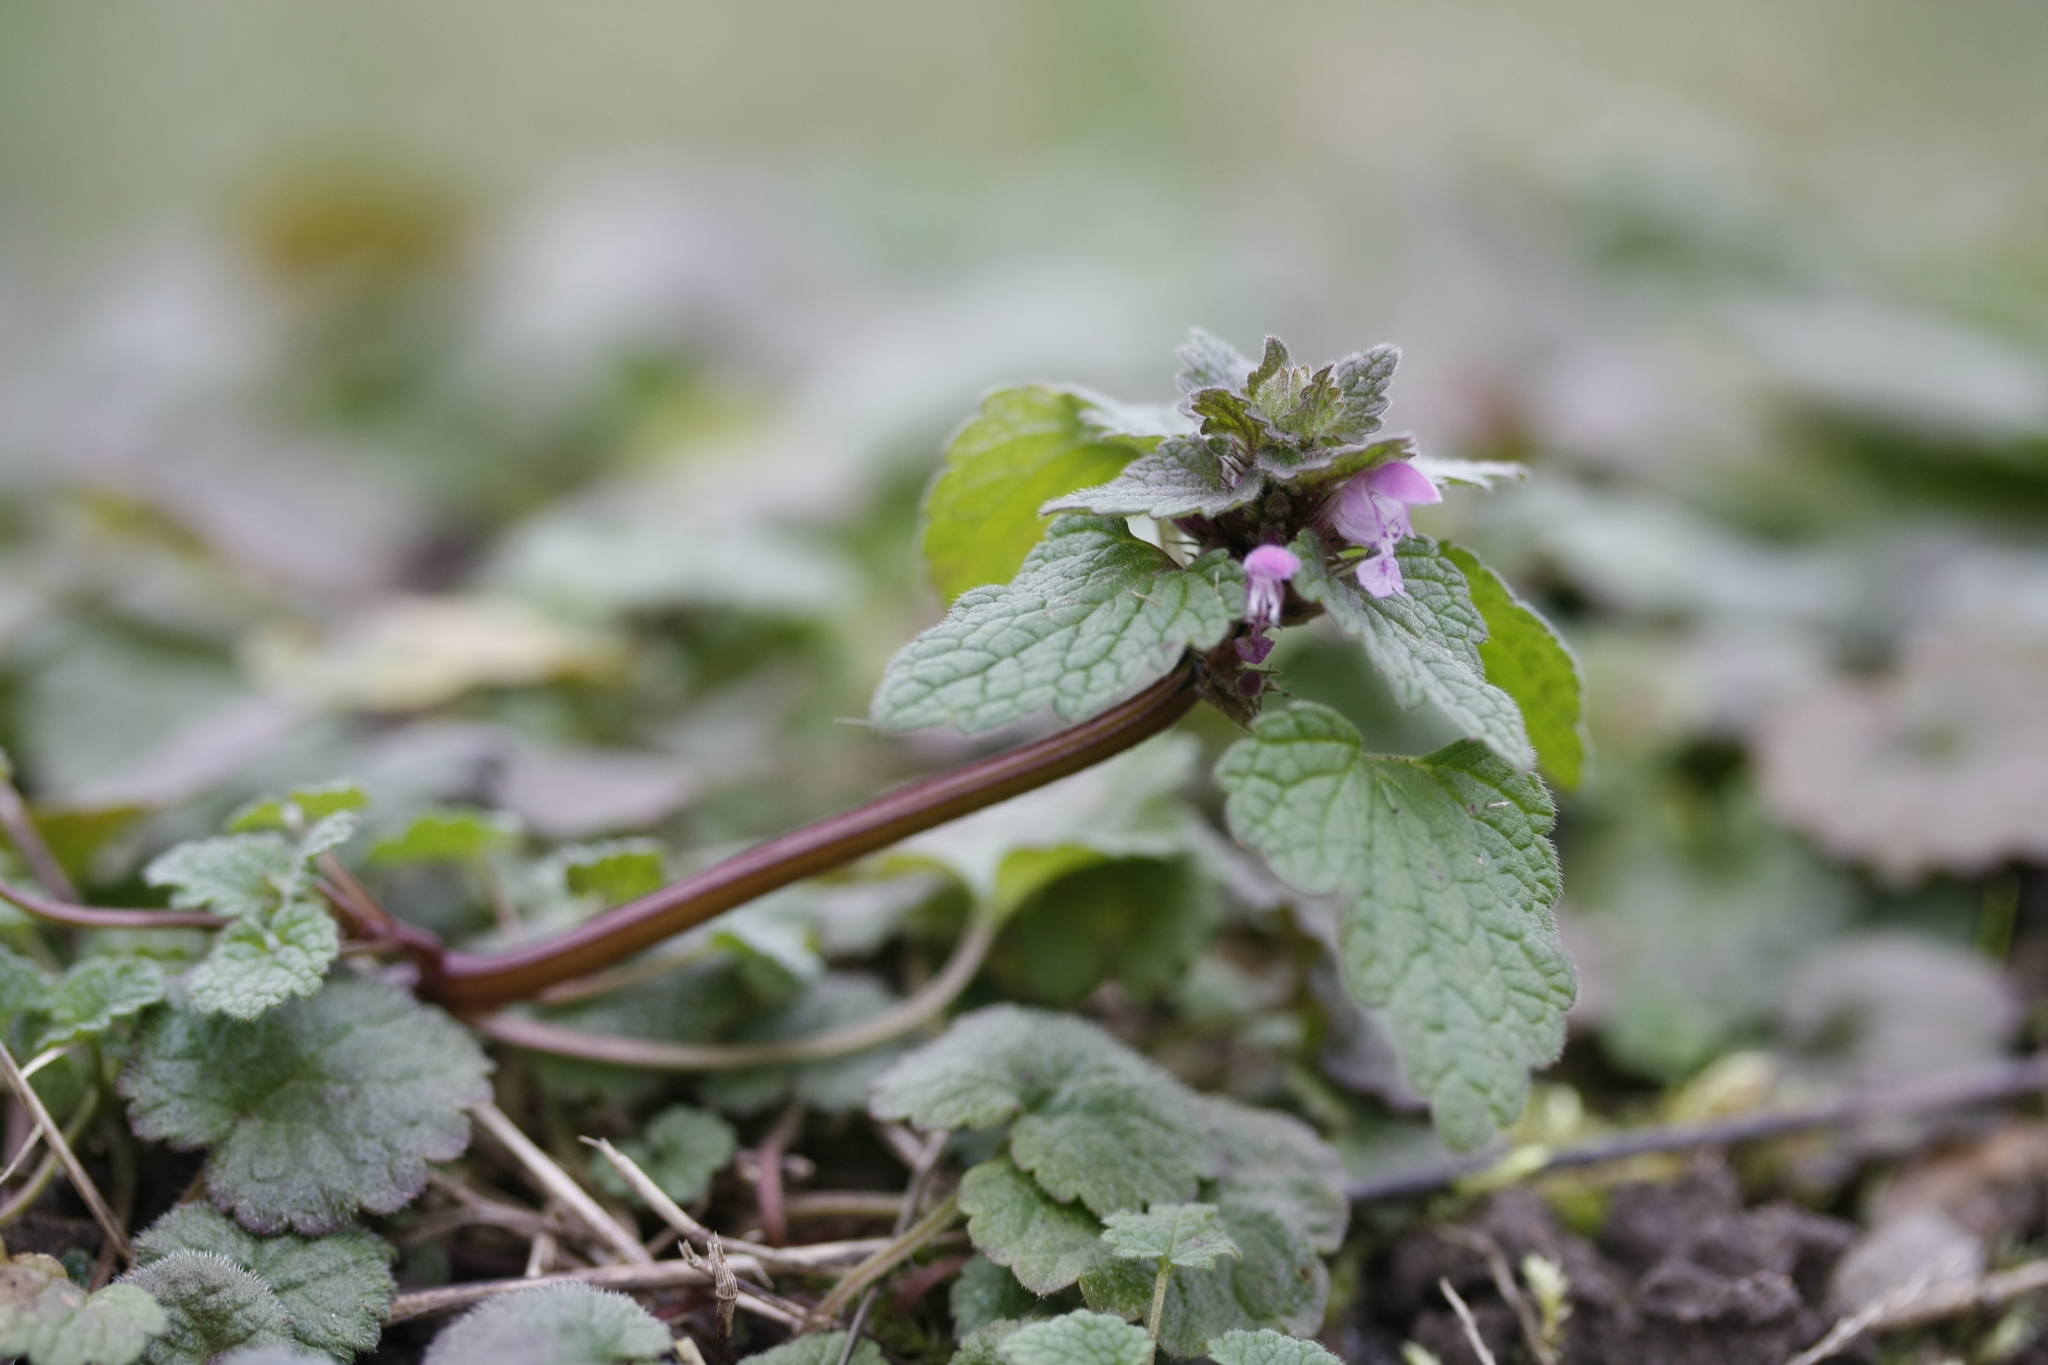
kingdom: Plantae
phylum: Tracheophyta
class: Magnoliopsida
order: Lamiales
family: Lamiaceae
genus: Lamium
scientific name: Lamium purpureum
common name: Red dead-nettle
